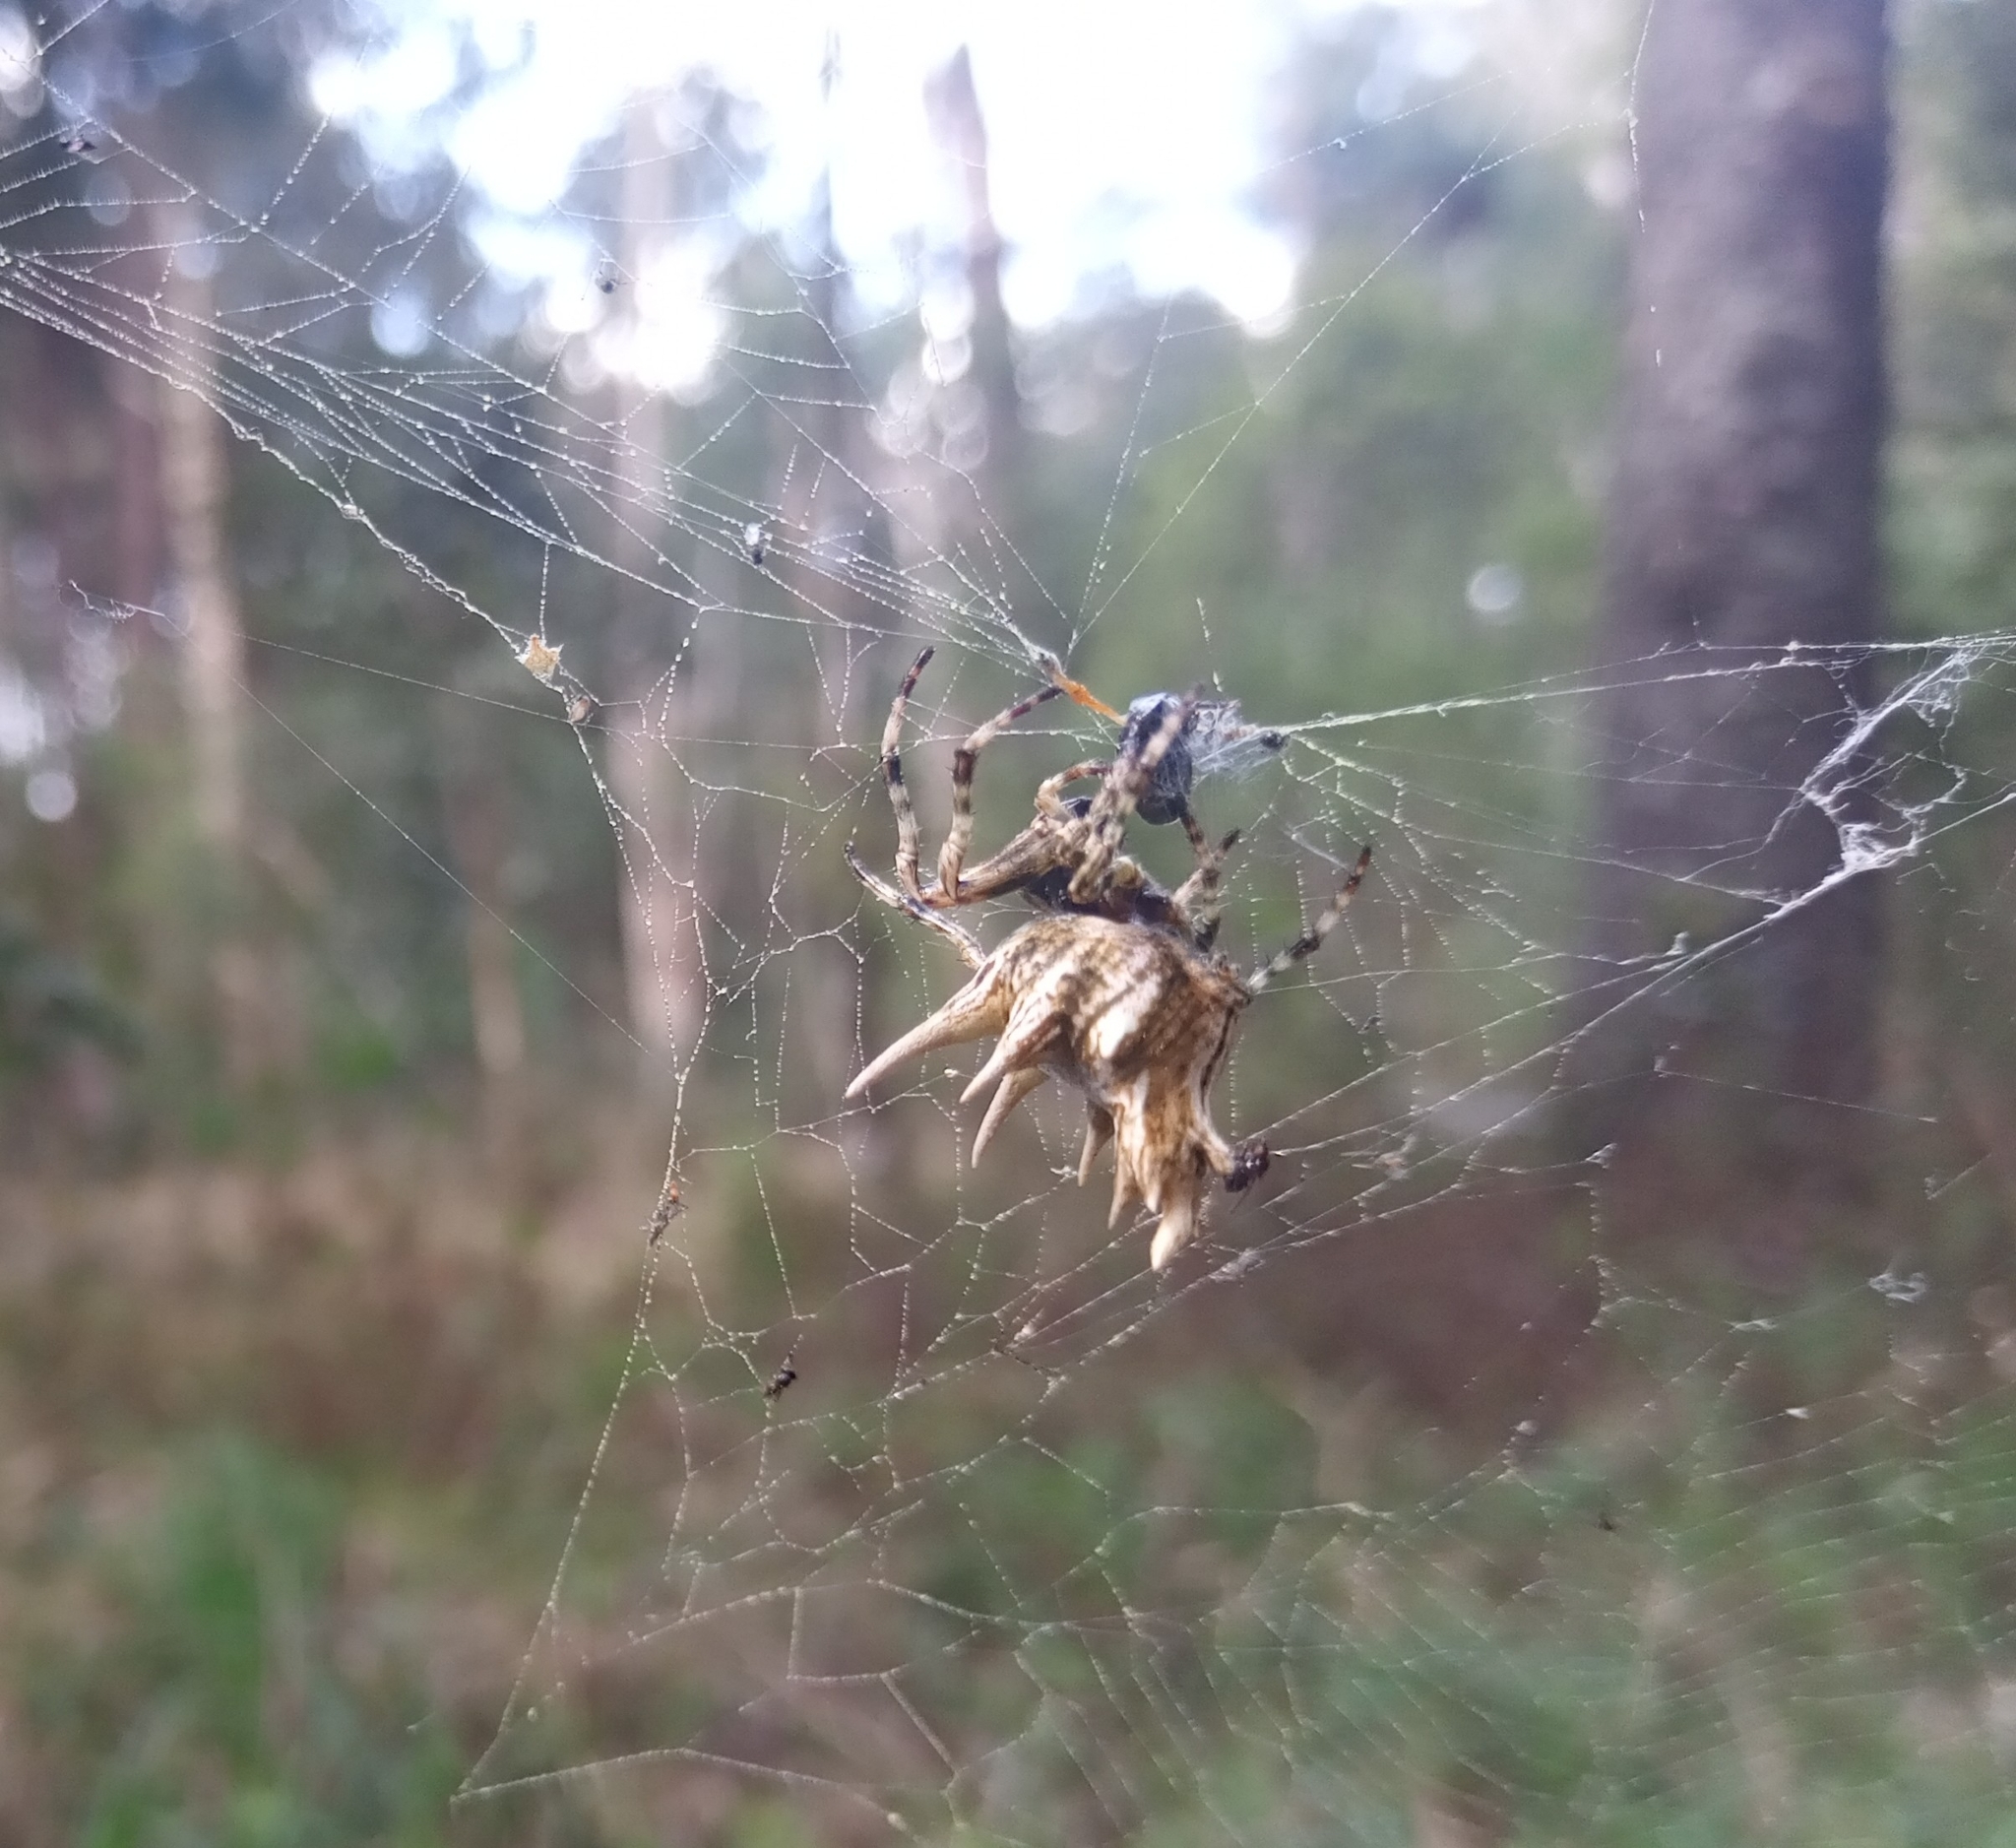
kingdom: Animalia
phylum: Arthropoda
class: Arachnida
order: Araneae
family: Araneidae
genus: Paraverrucosa
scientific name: Paraverrucosa heteracantha
